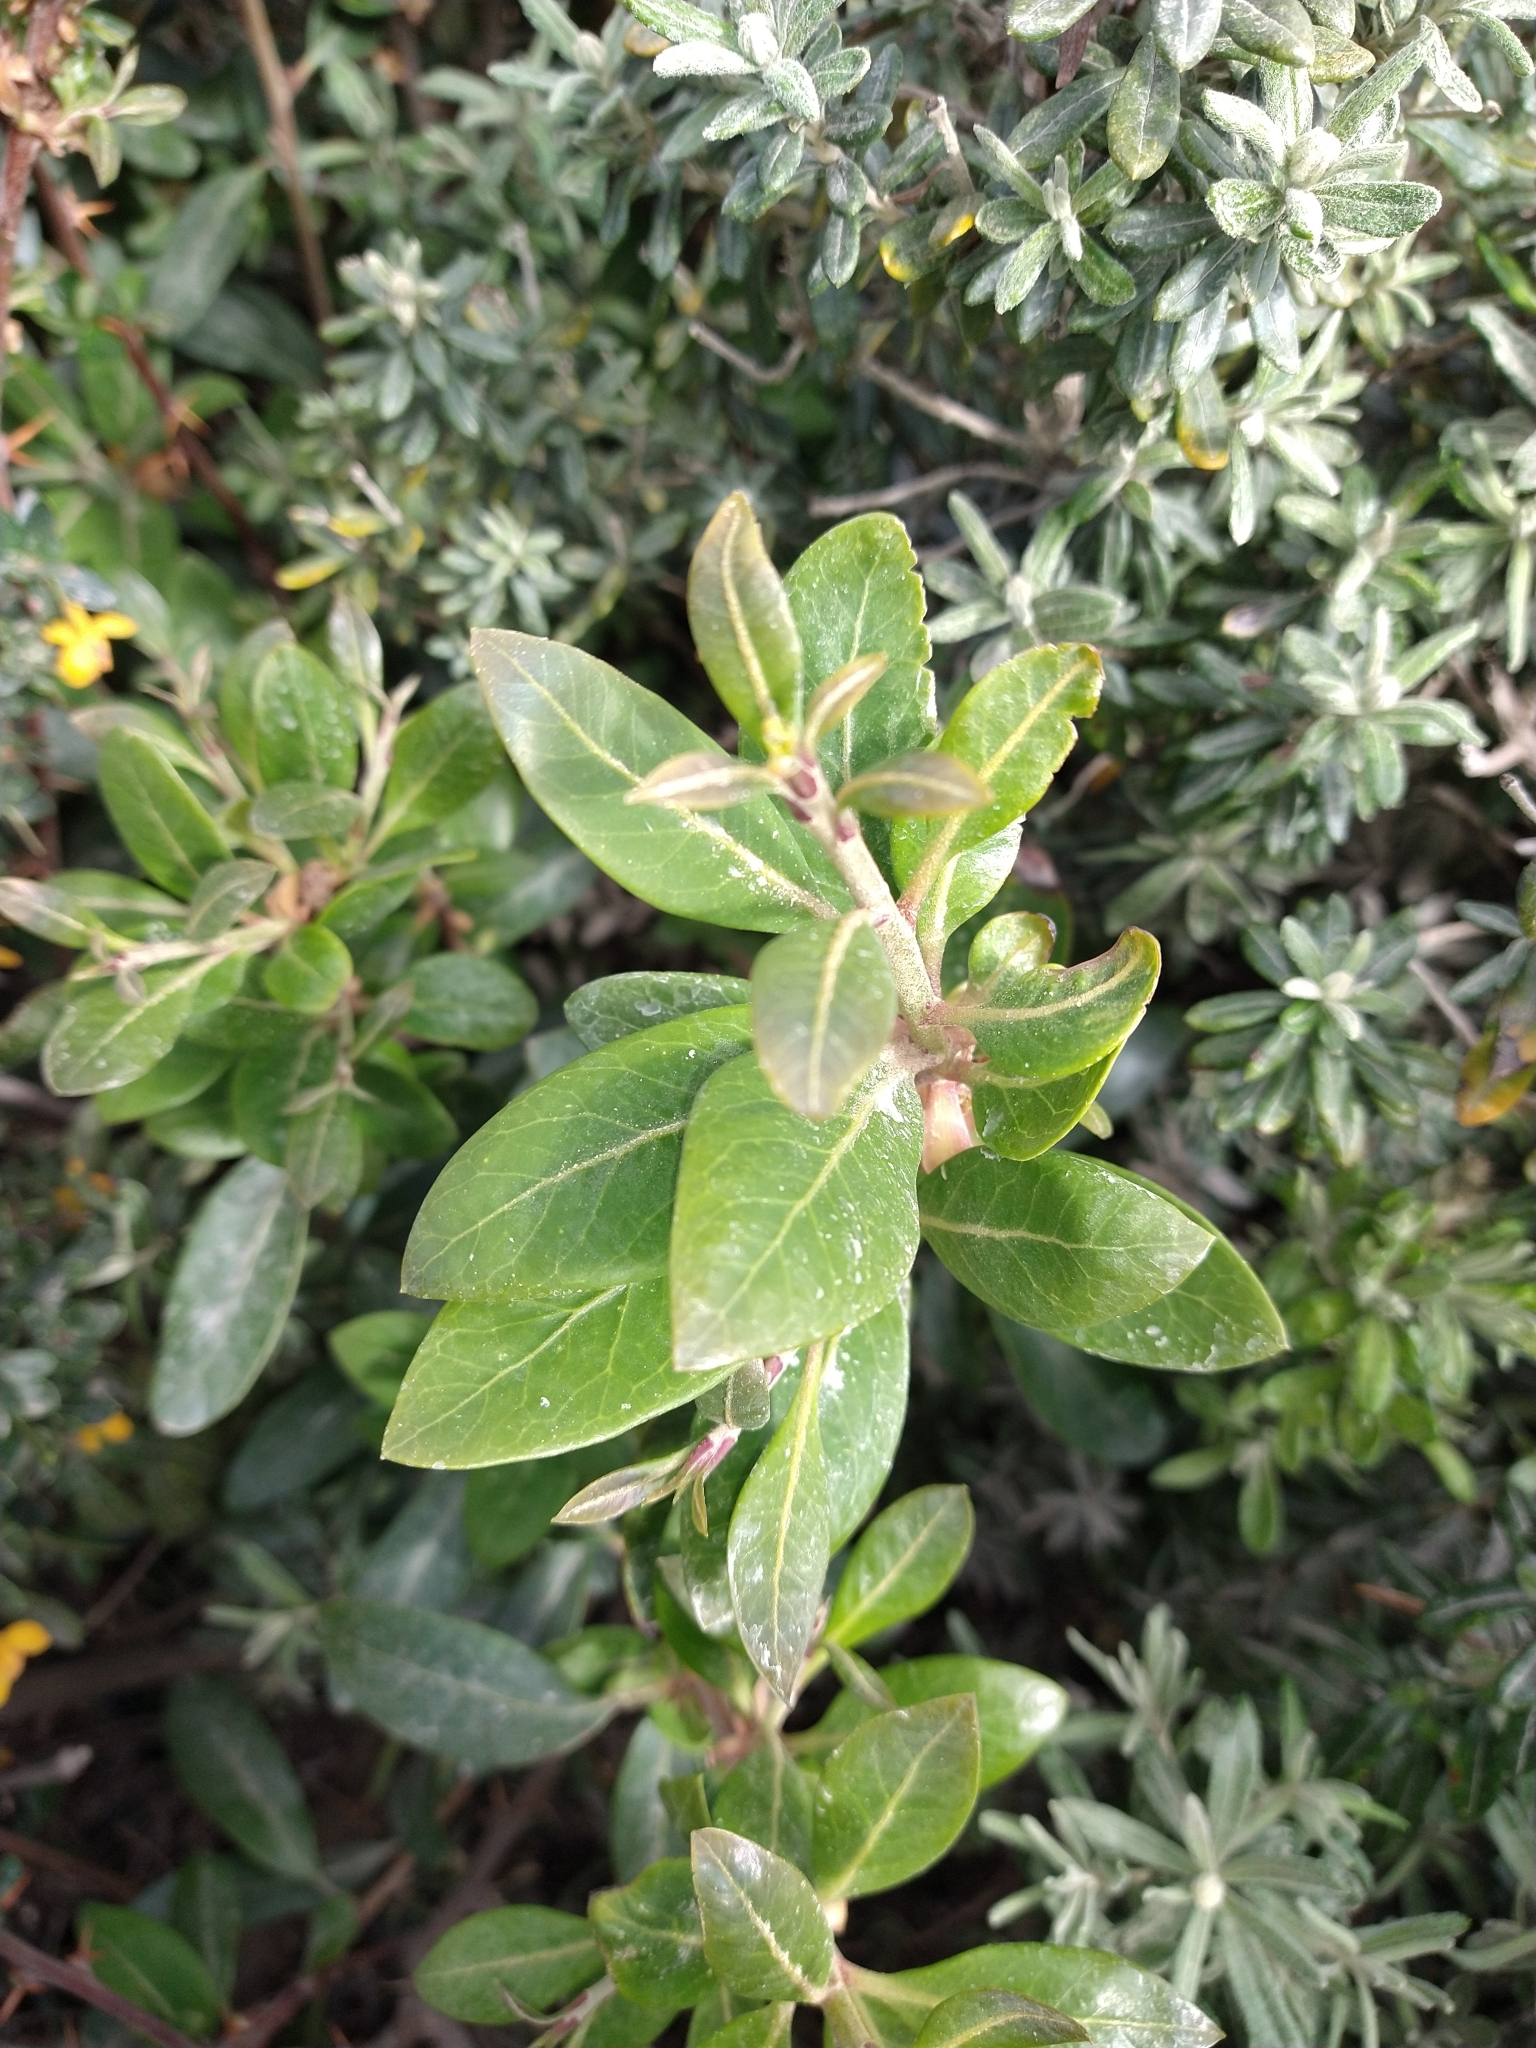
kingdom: Plantae
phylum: Tracheophyta
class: Magnoliopsida
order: Proteales
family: Proteaceae
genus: Embothrium
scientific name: Embothrium coccineum
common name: Chilean firebush
